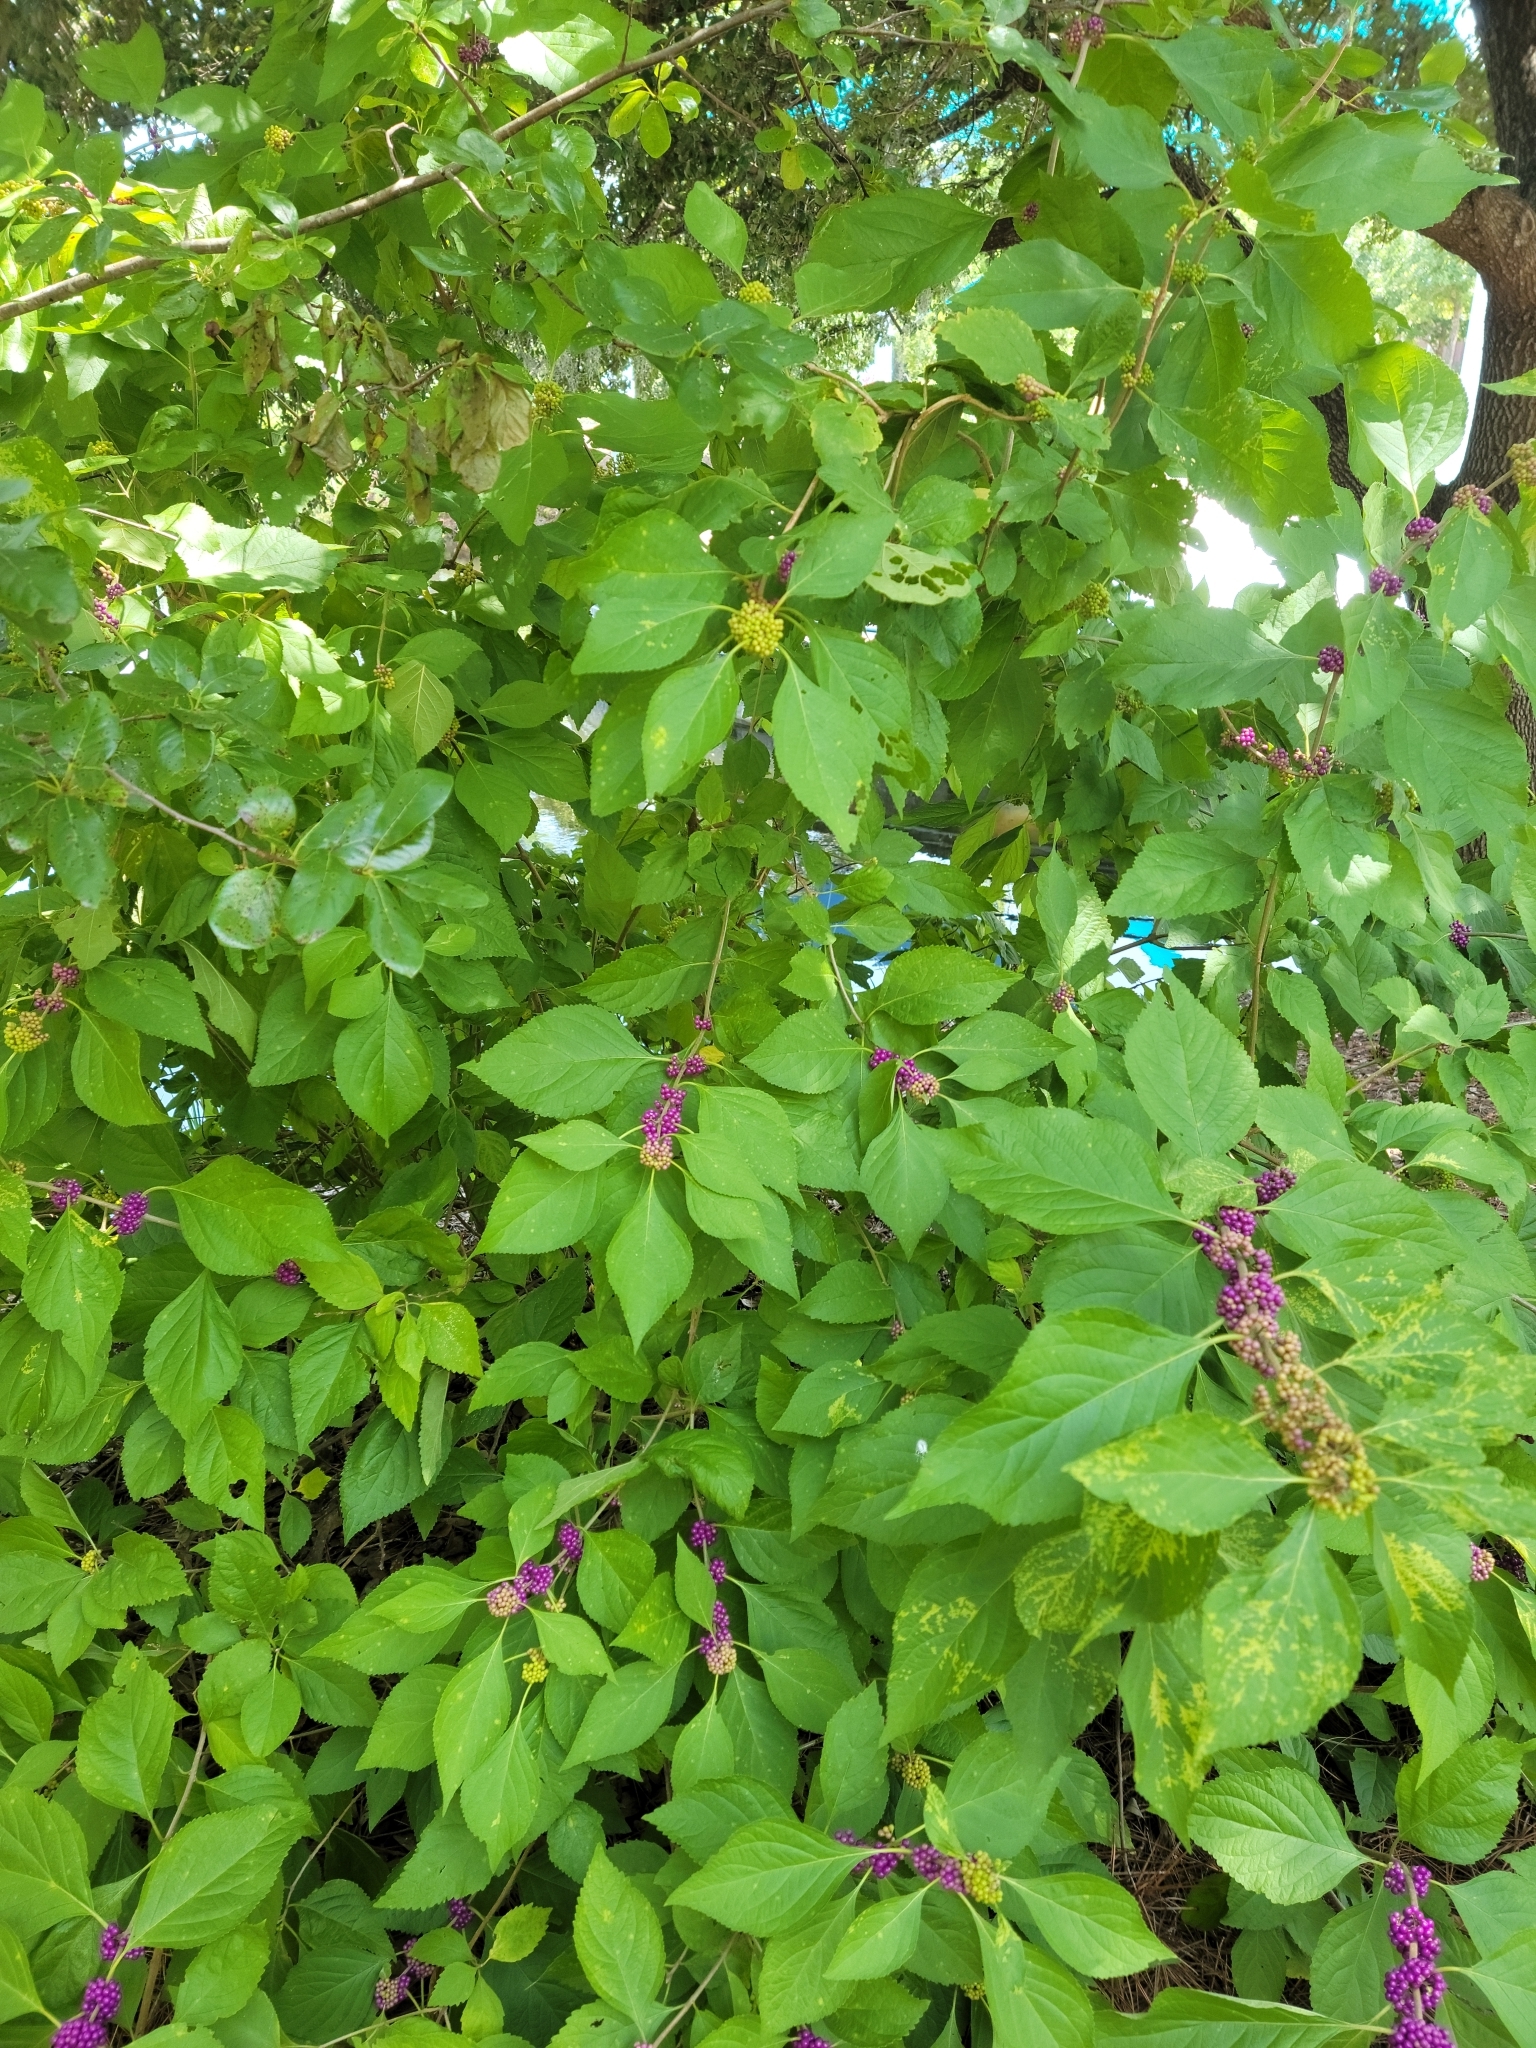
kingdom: Plantae
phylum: Tracheophyta
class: Magnoliopsida
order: Lamiales
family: Lamiaceae
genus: Callicarpa
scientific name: Callicarpa americana
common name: American beautyberry
